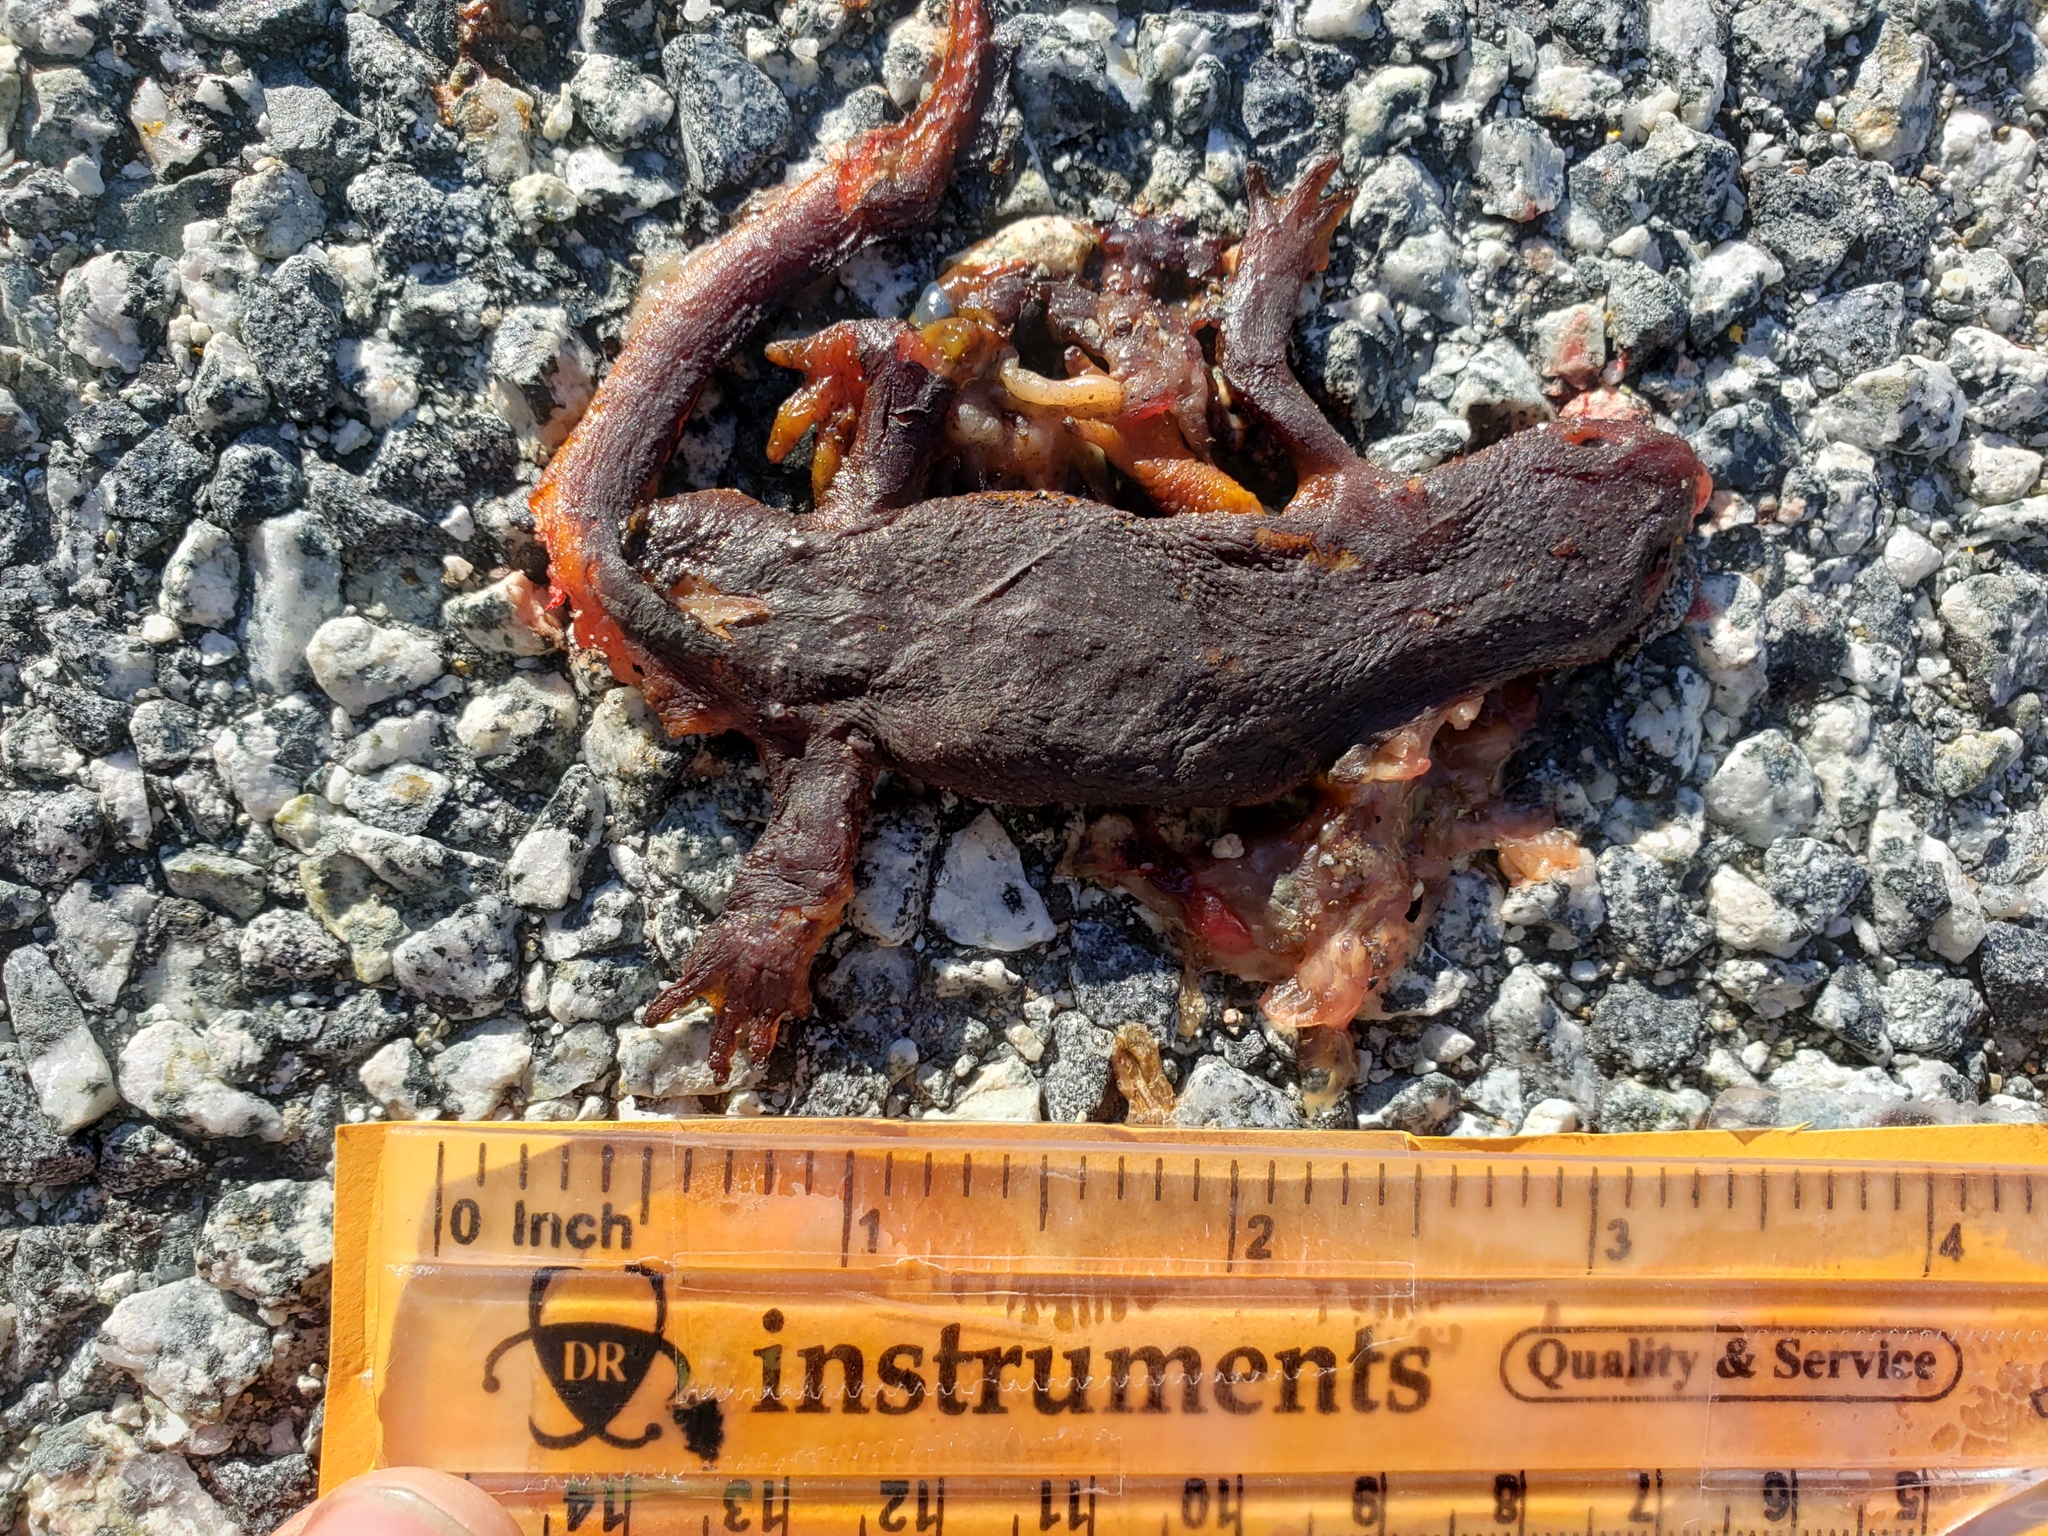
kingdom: Animalia
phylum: Chordata
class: Amphibia
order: Caudata
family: Salamandridae
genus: Taricha
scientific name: Taricha
